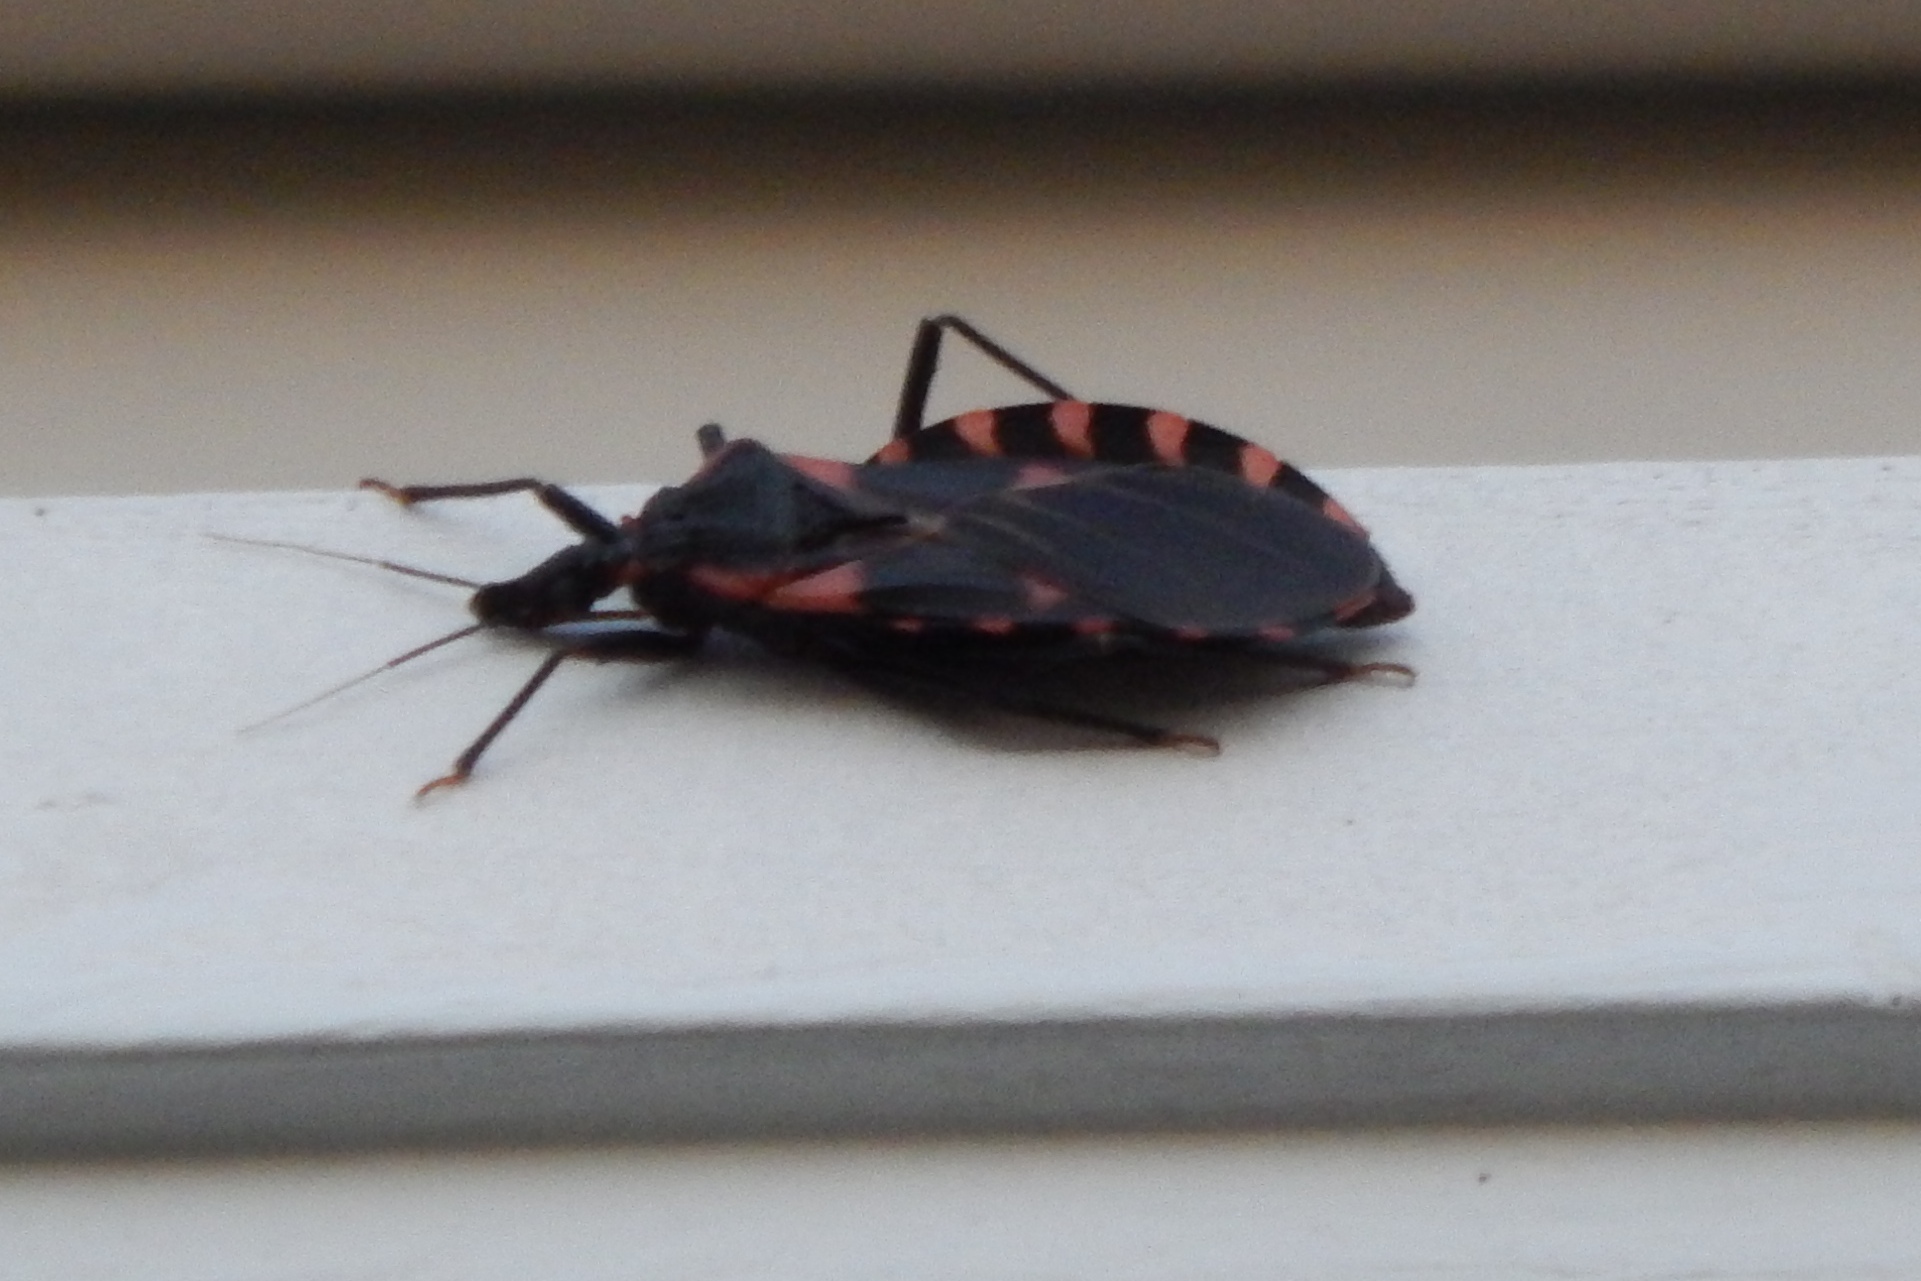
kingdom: Animalia
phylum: Arthropoda
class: Insecta
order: Hemiptera
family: Reduviidae
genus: Triatoma
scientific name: Triatoma sanguisuga
